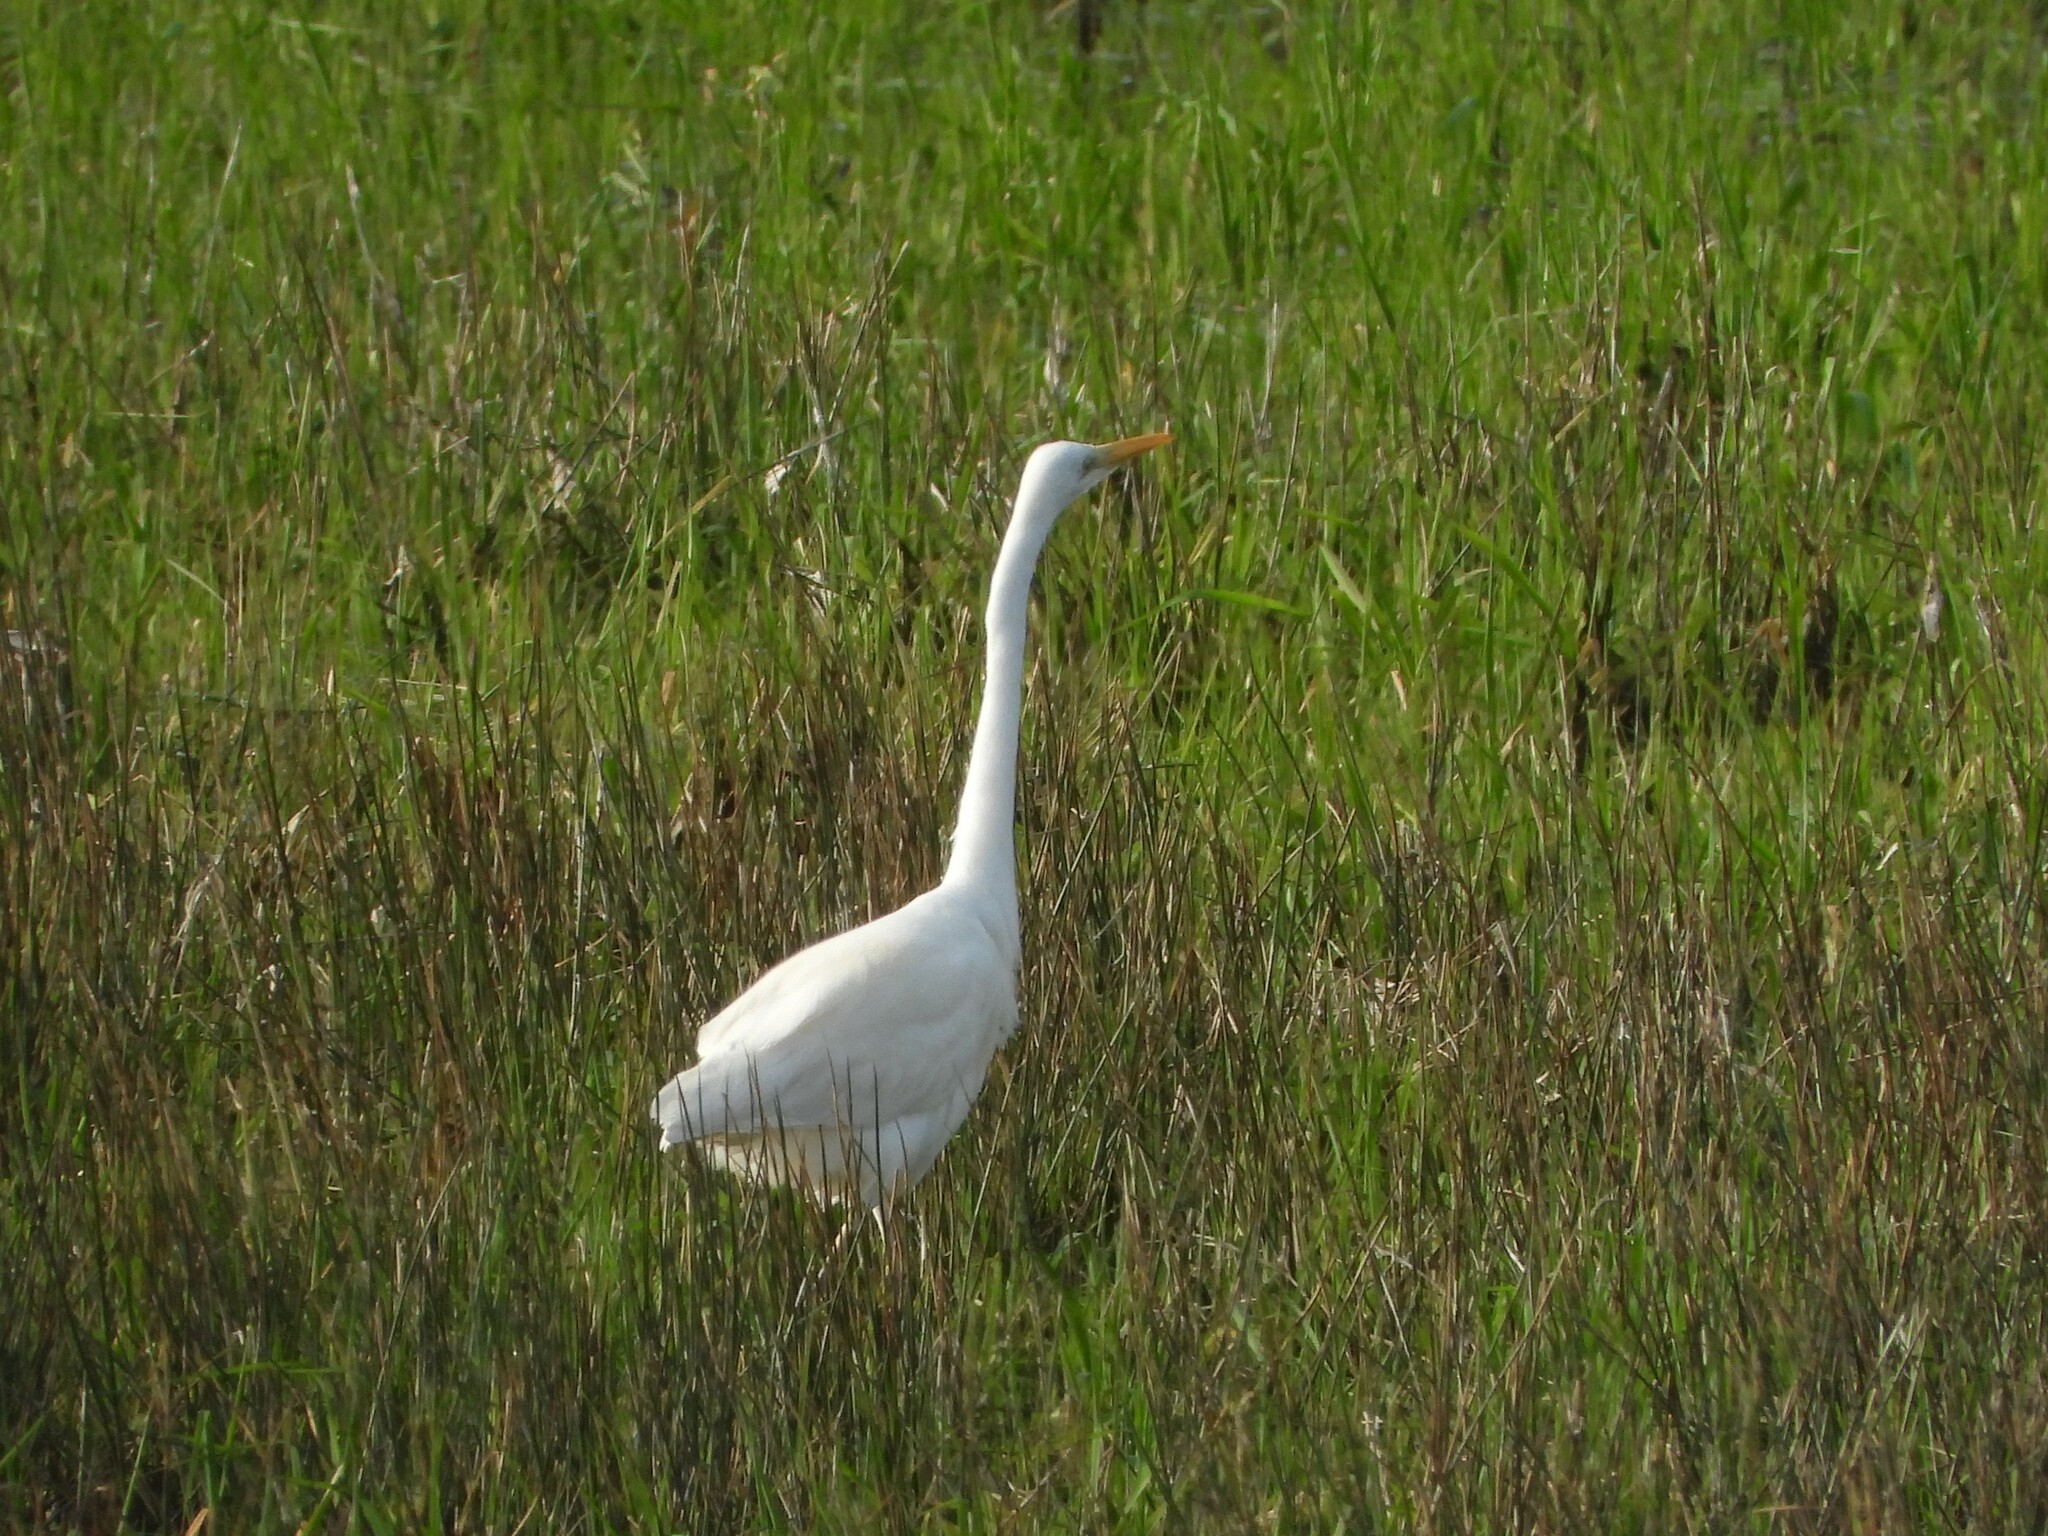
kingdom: Animalia
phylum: Chordata
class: Aves
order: Pelecaniformes
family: Ardeidae
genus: Ardea
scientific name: Ardea alba
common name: Great egret
